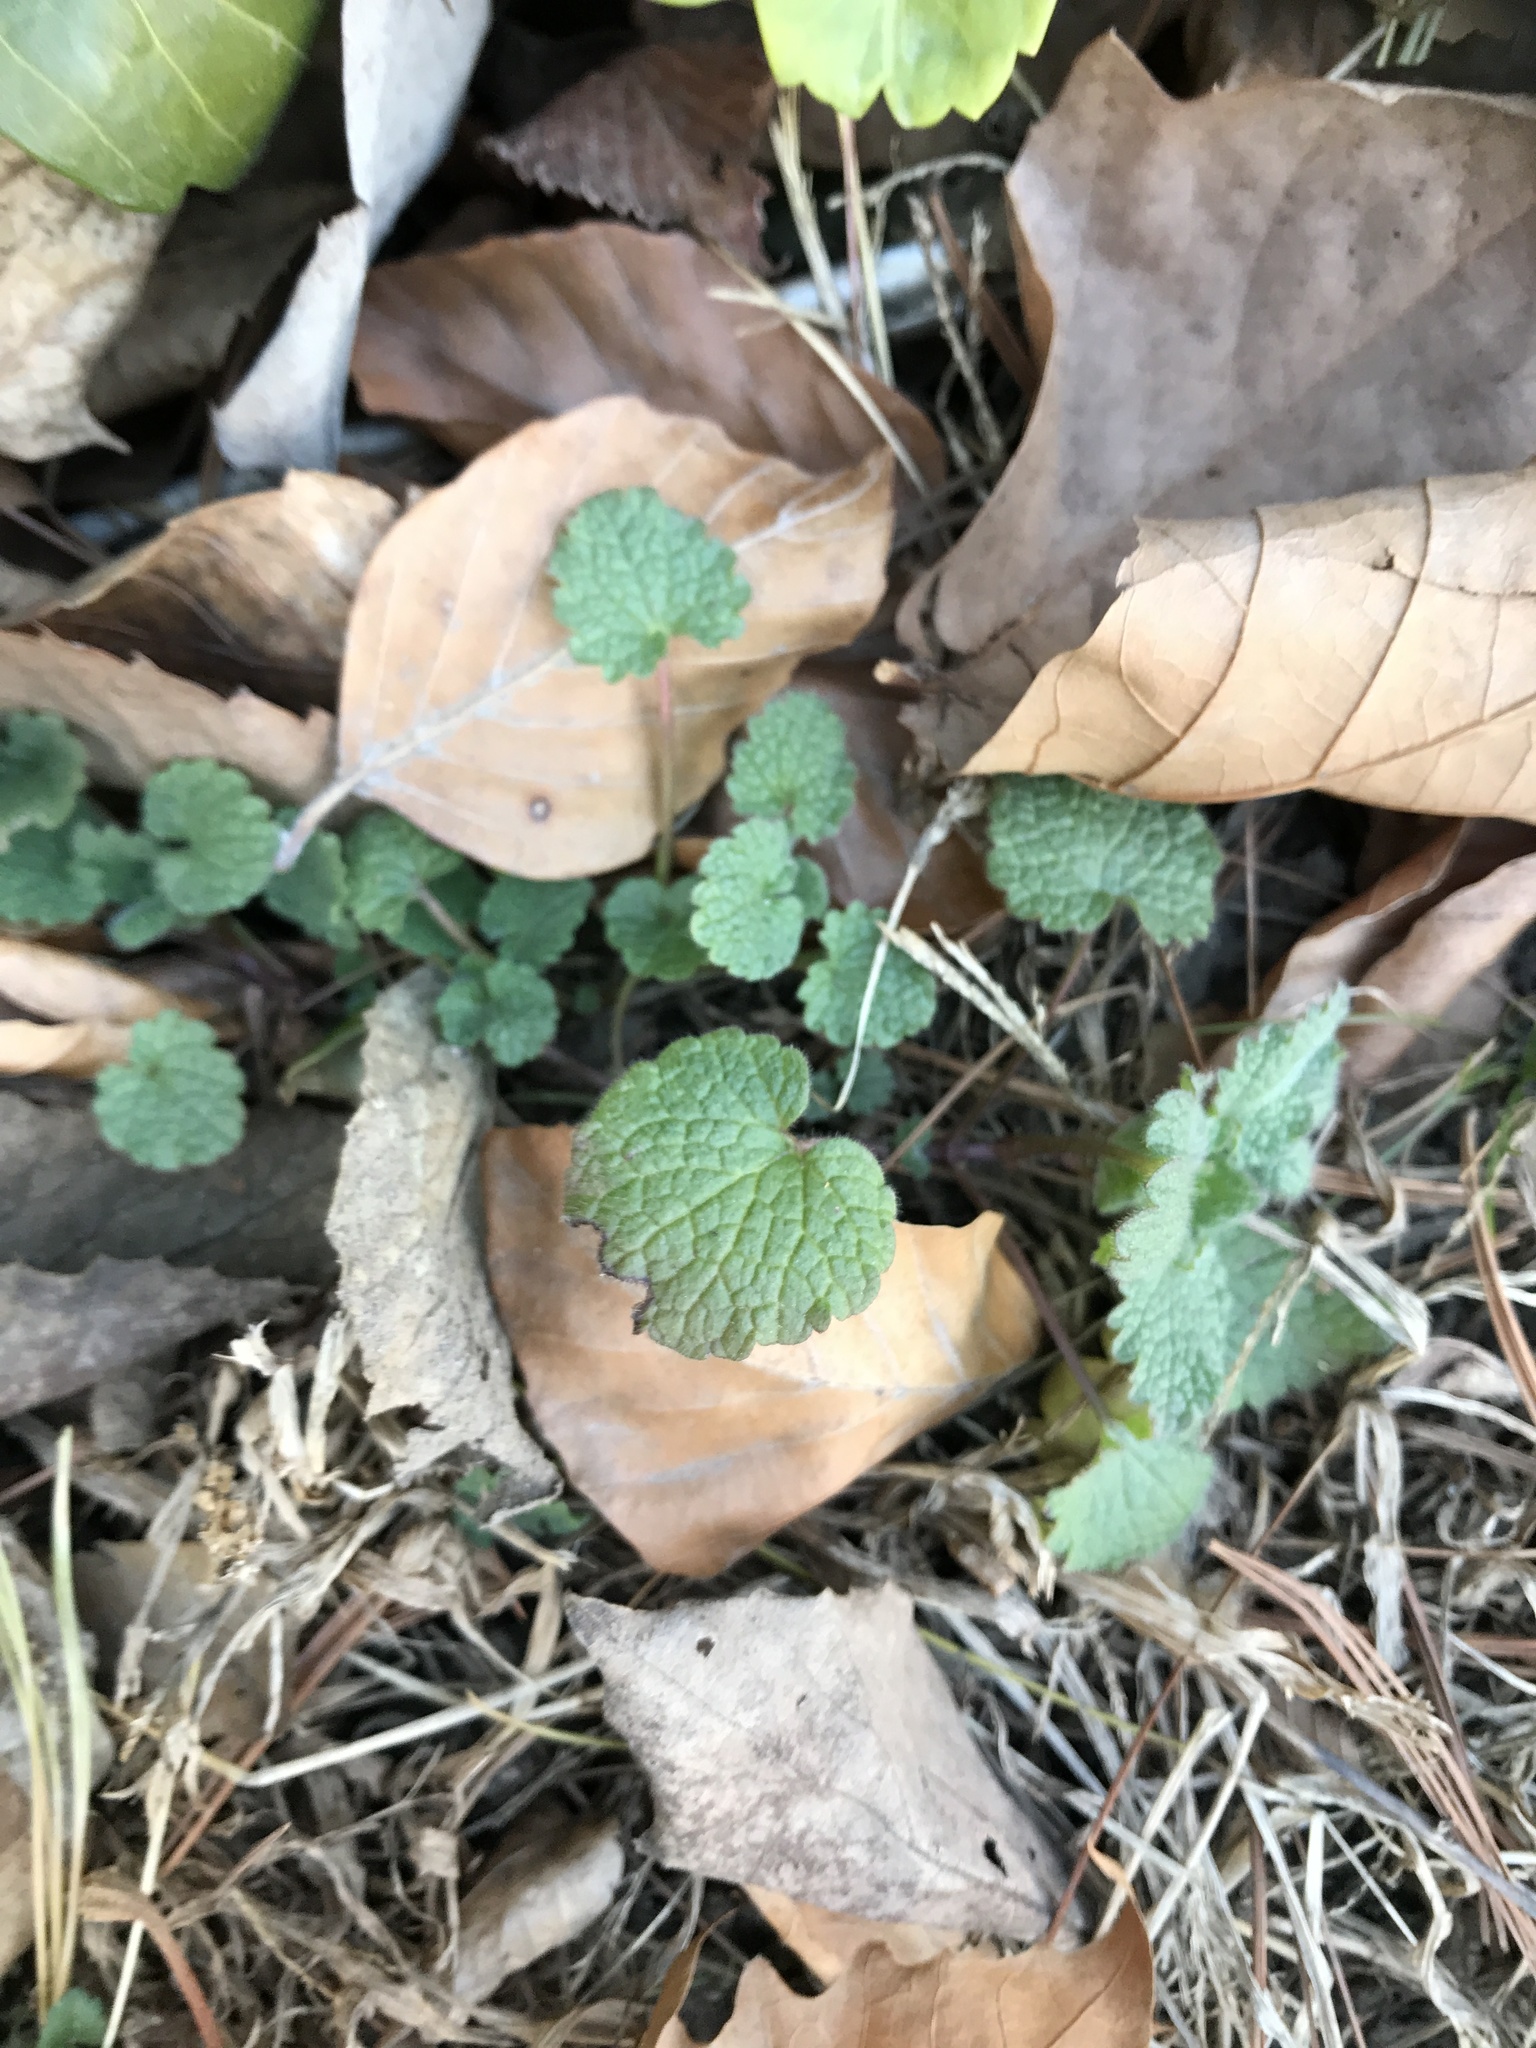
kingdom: Plantae
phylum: Tracheophyta
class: Magnoliopsida
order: Lamiales
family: Lamiaceae
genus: Lamium
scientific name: Lamium purpureum
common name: Red dead-nettle
